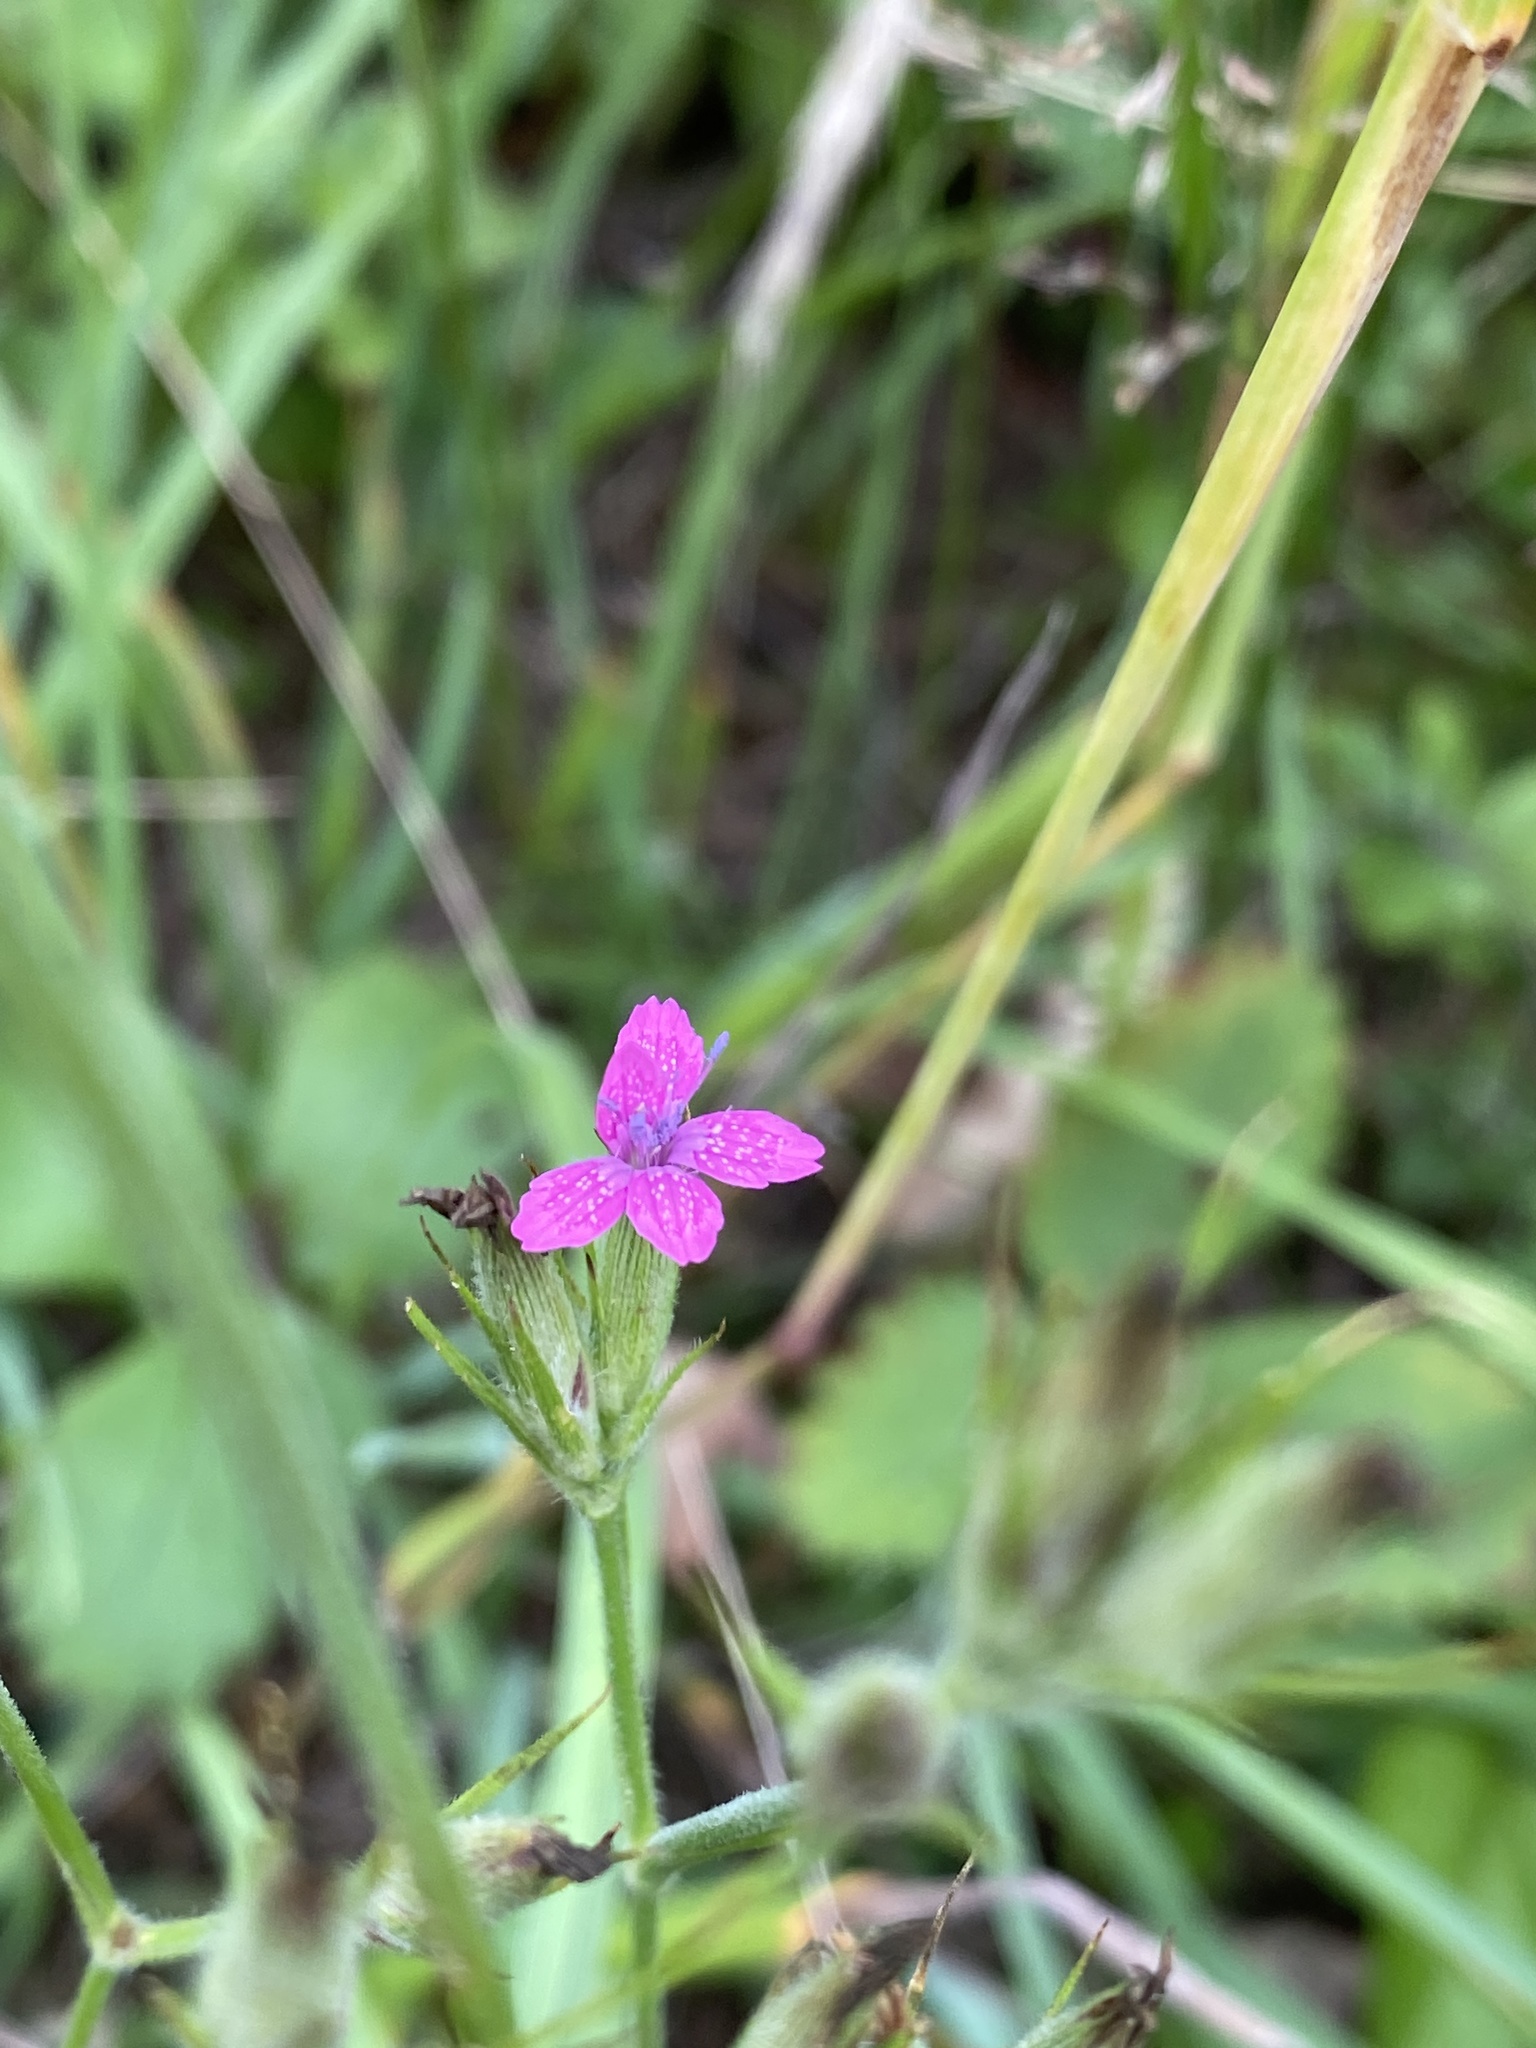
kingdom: Plantae
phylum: Tracheophyta
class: Magnoliopsida
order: Caryophyllales
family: Caryophyllaceae
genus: Dianthus
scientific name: Dianthus armeria
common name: Deptford pink
